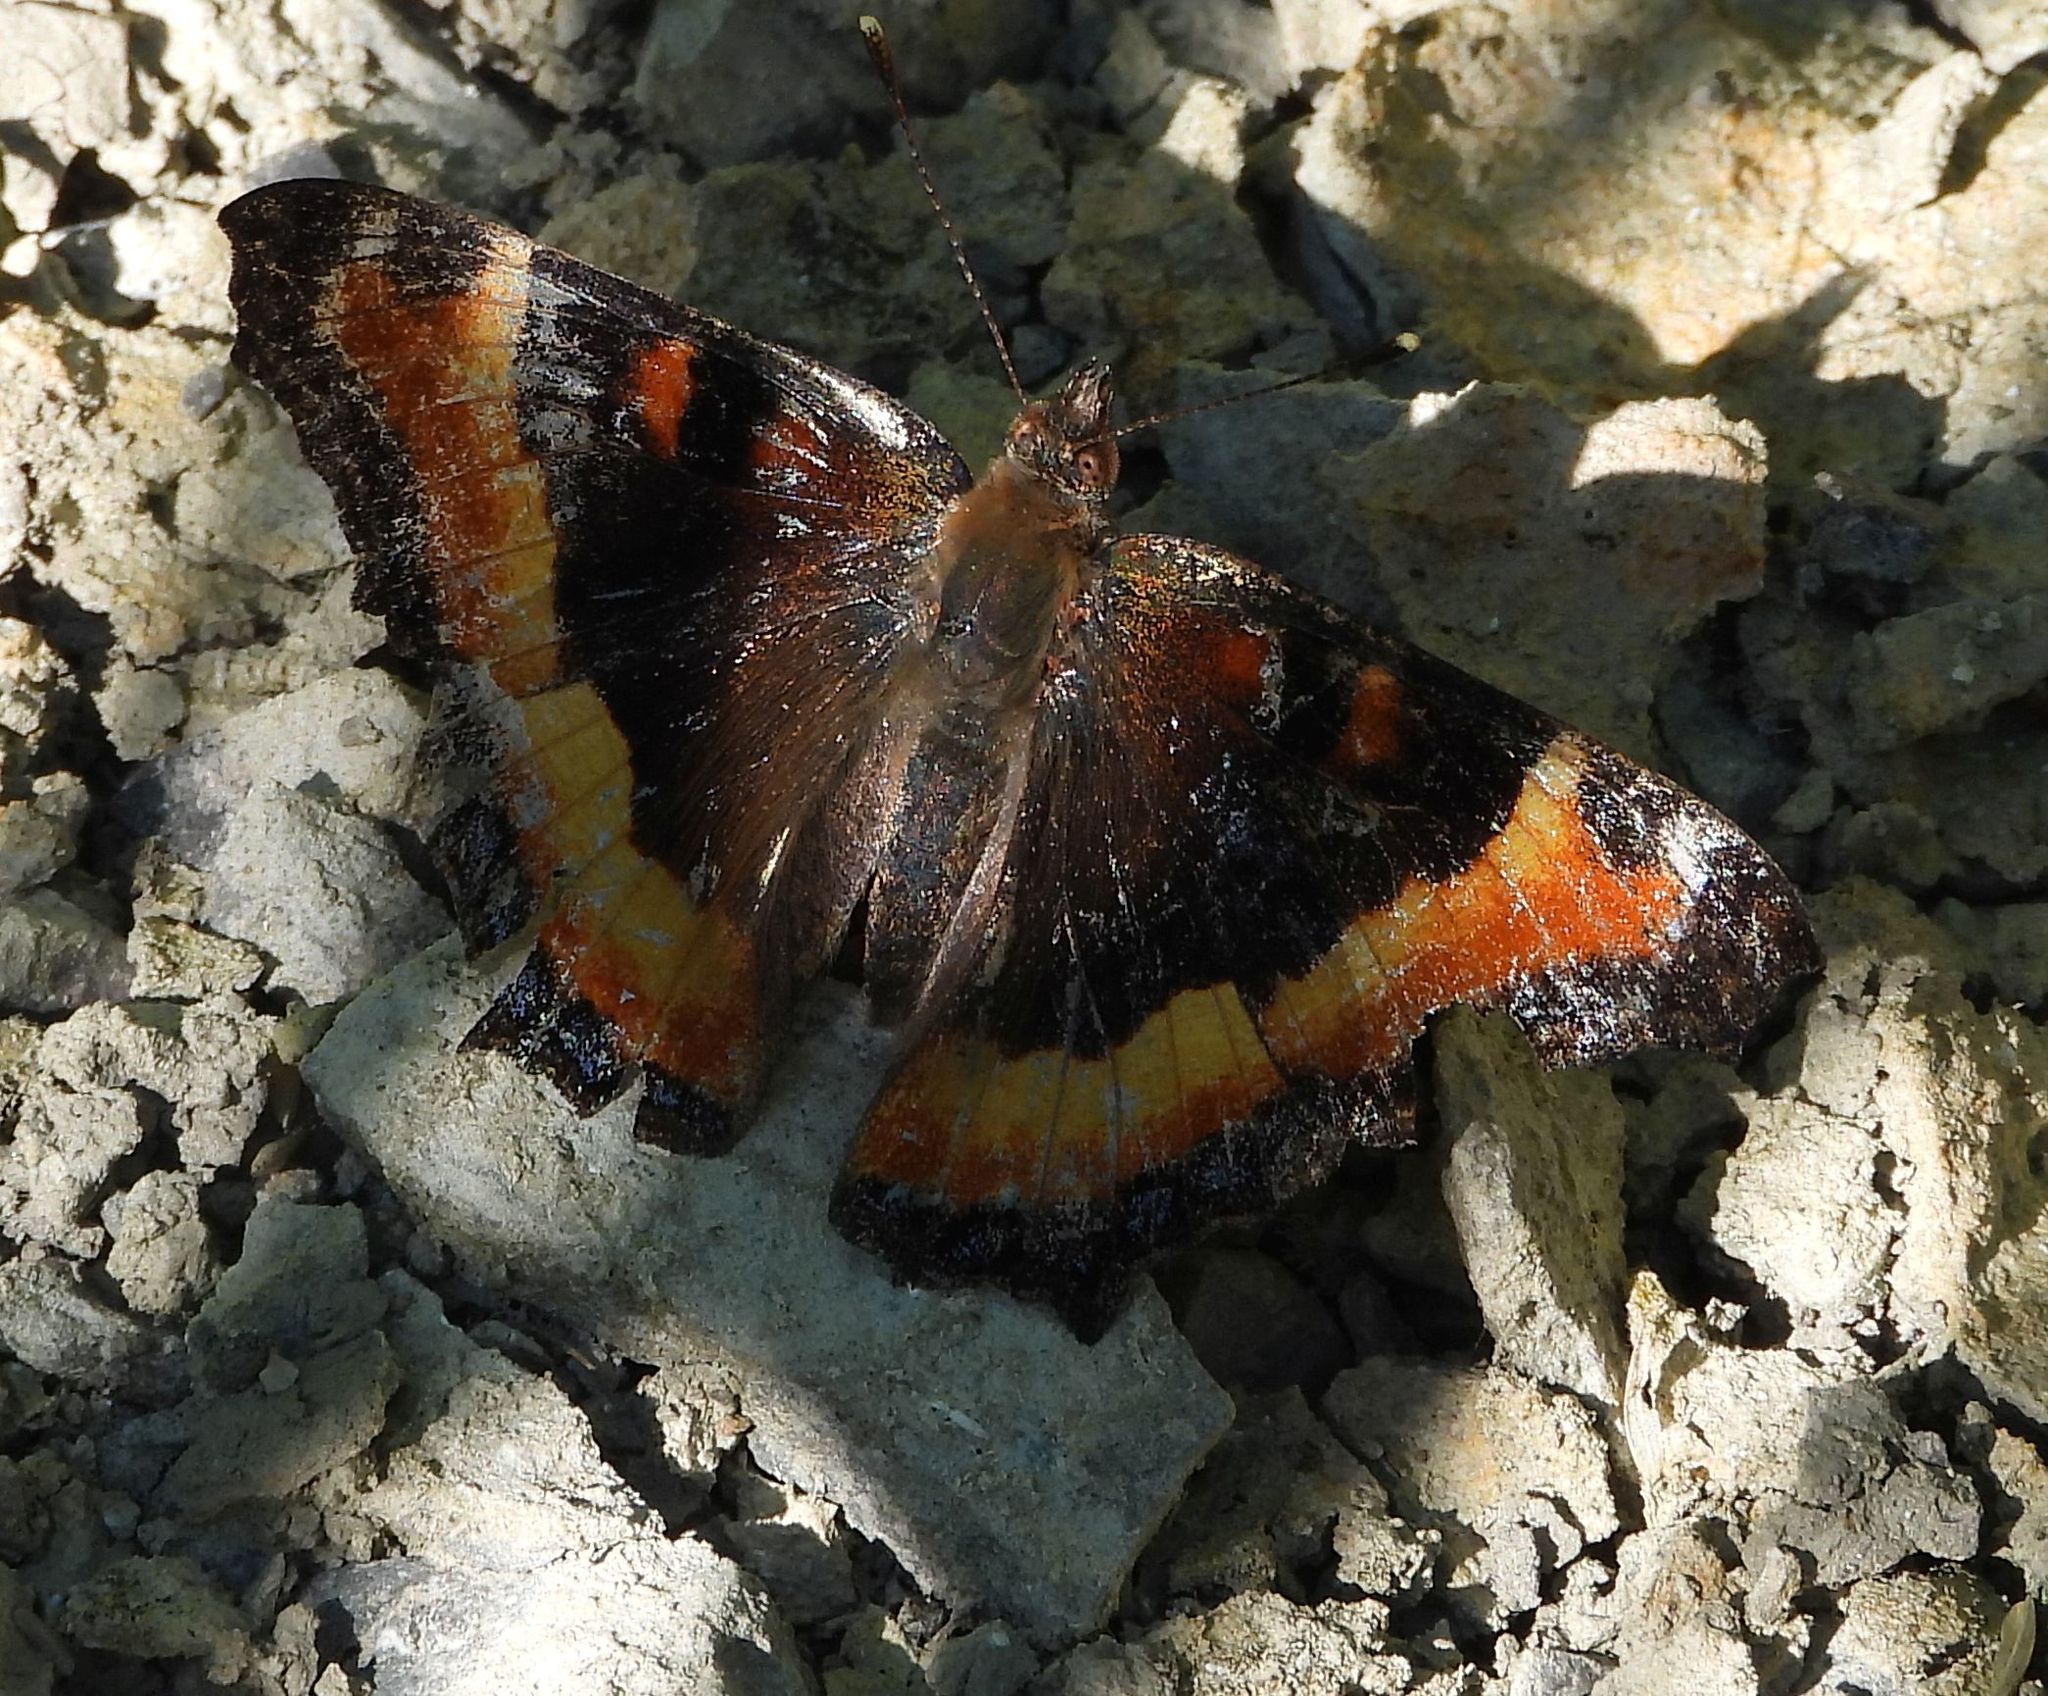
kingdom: Animalia
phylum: Arthropoda
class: Insecta
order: Lepidoptera
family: Nymphalidae
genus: Aglais
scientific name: Aglais milberti
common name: Milbert's tortoiseshell
